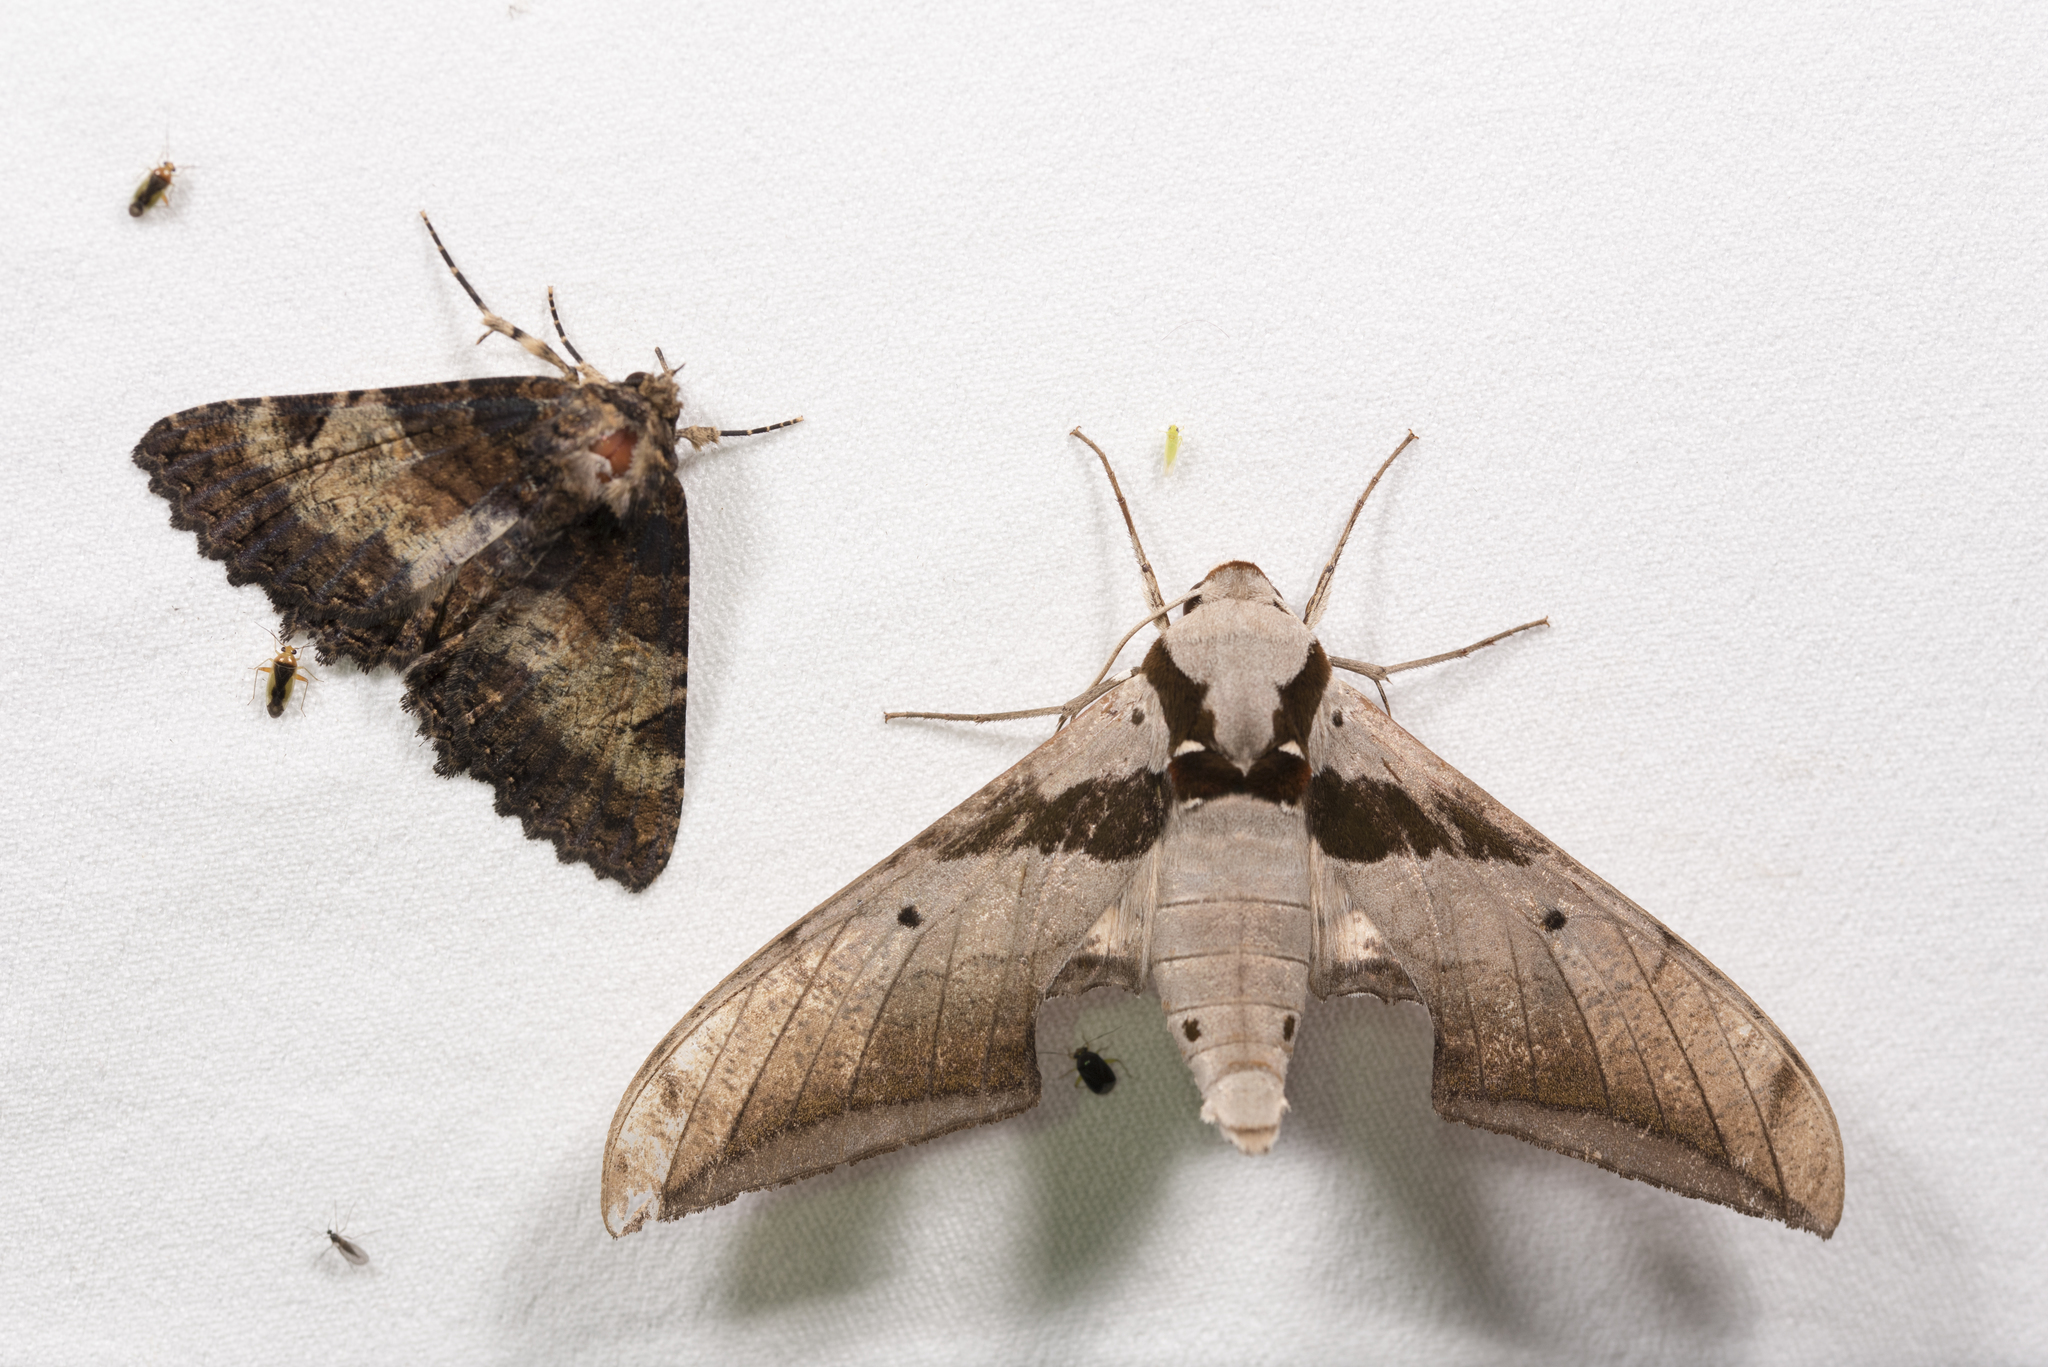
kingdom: Animalia
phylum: Arthropoda
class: Insecta
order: Lepidoptera
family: Sphingidae
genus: Ambulyx
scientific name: Ambulyx japonica
